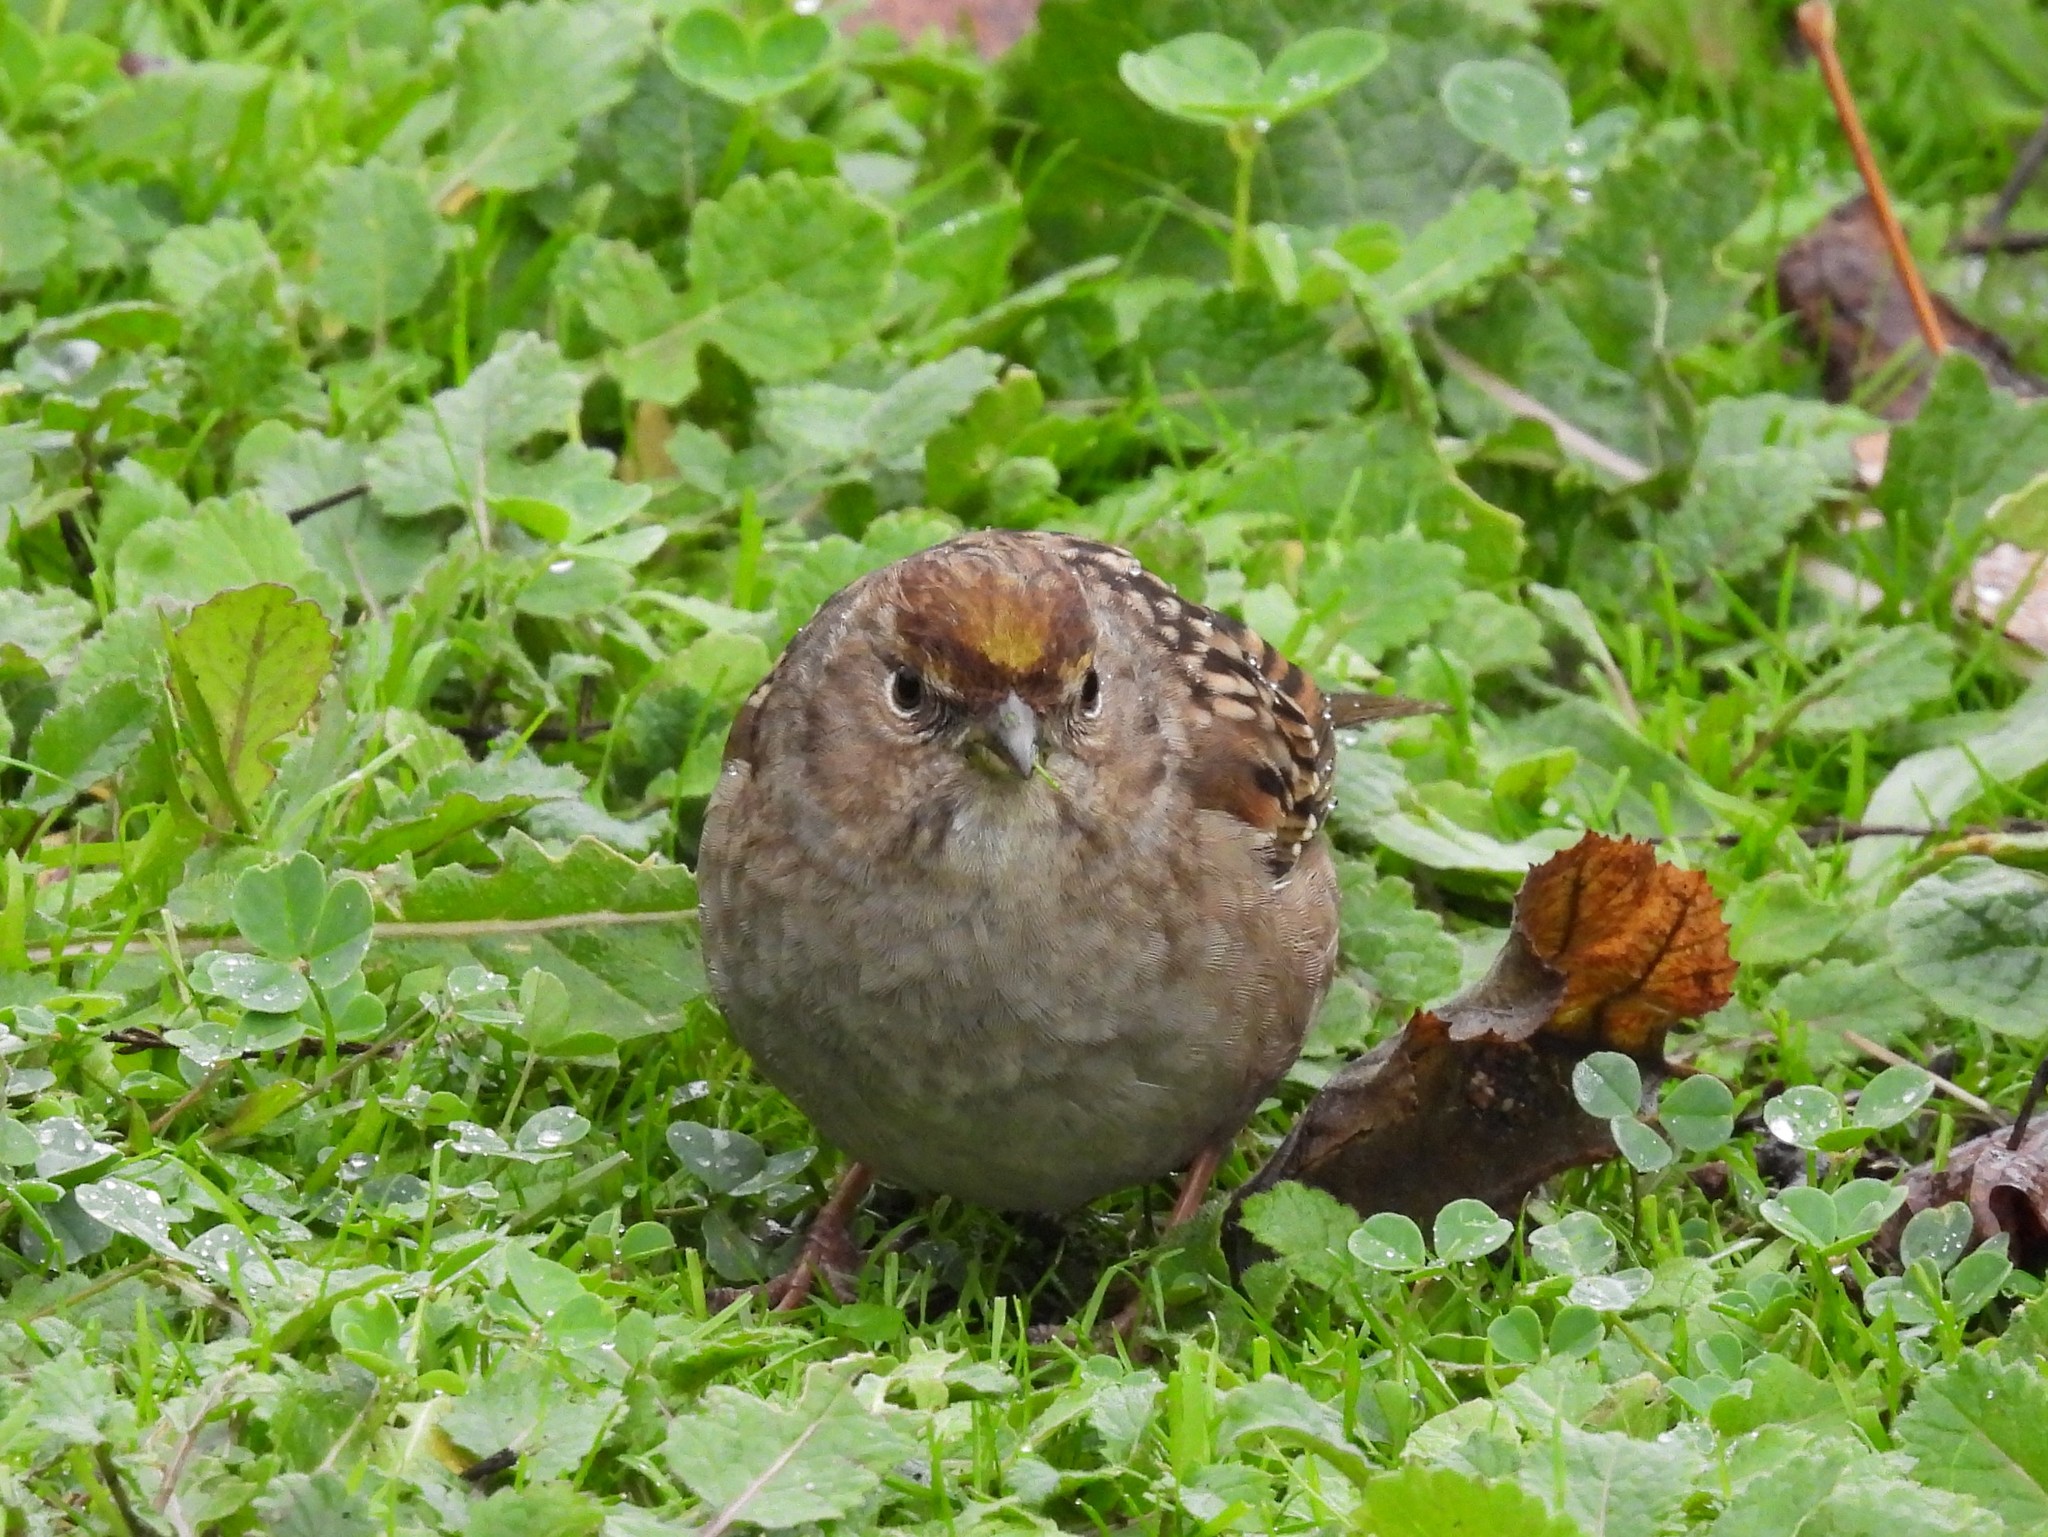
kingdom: Animalia
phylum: Chordata
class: Aves
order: Passeriformes
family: Passerellidae
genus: Zonotrichia
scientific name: Zonotrichia atricapilla
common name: Golden-crowned sparrow
